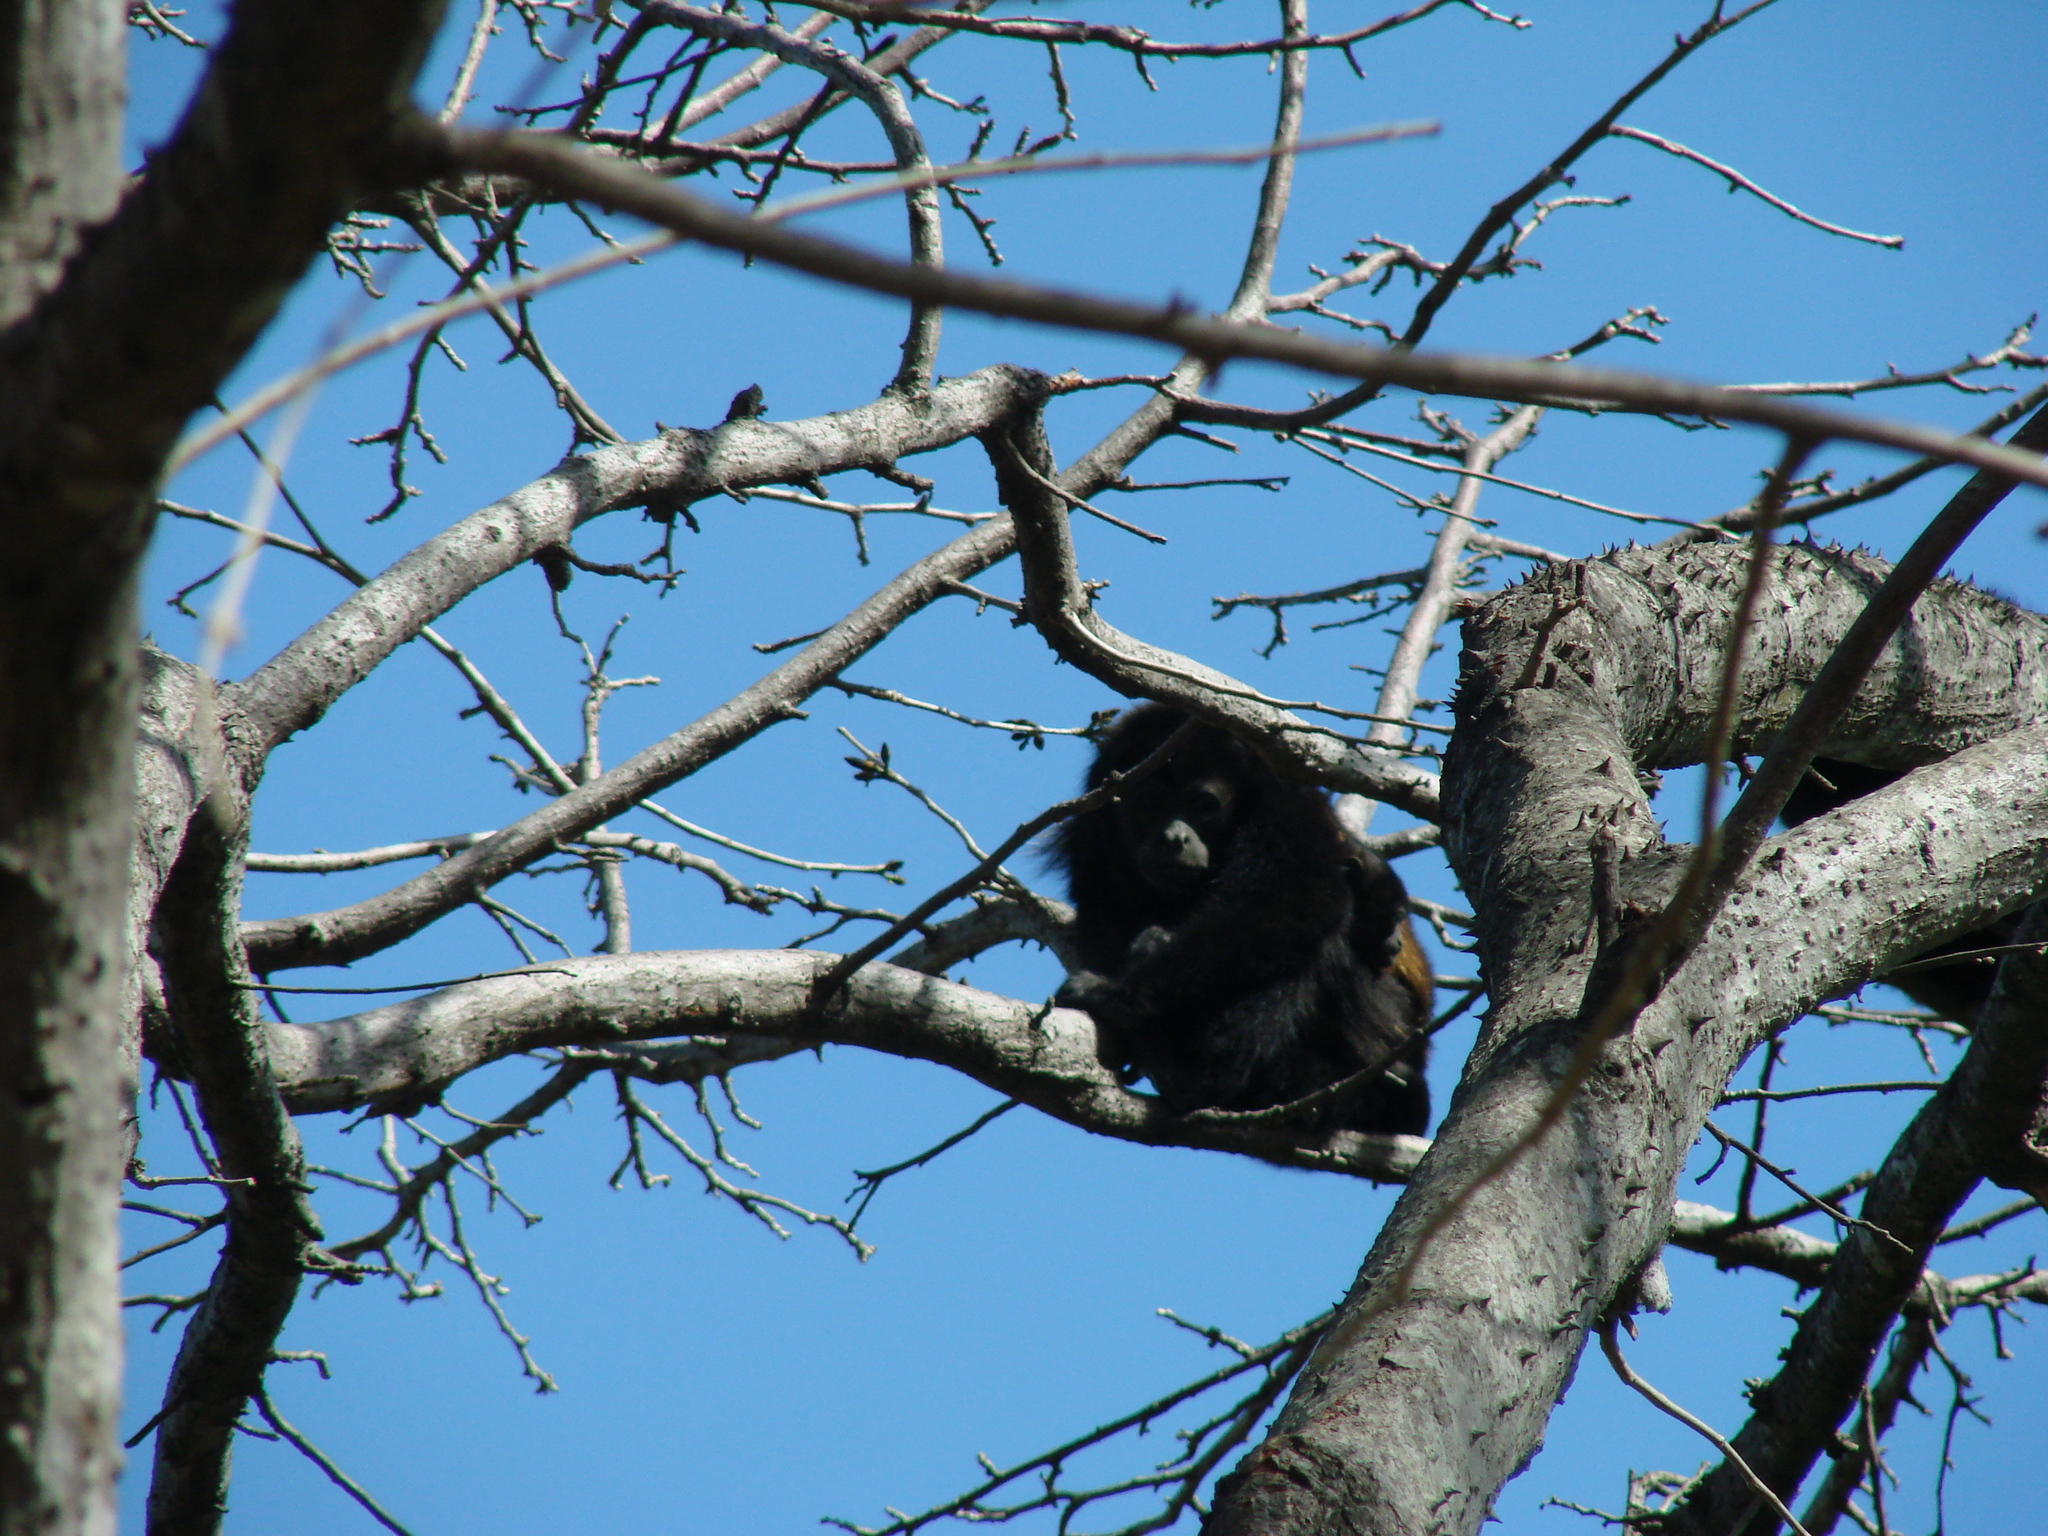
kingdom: Animalia
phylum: Chordata
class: Mammalia
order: Primates
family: Atelidae
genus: Alouatta
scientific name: Alouatta palliata
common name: Mantled howler
